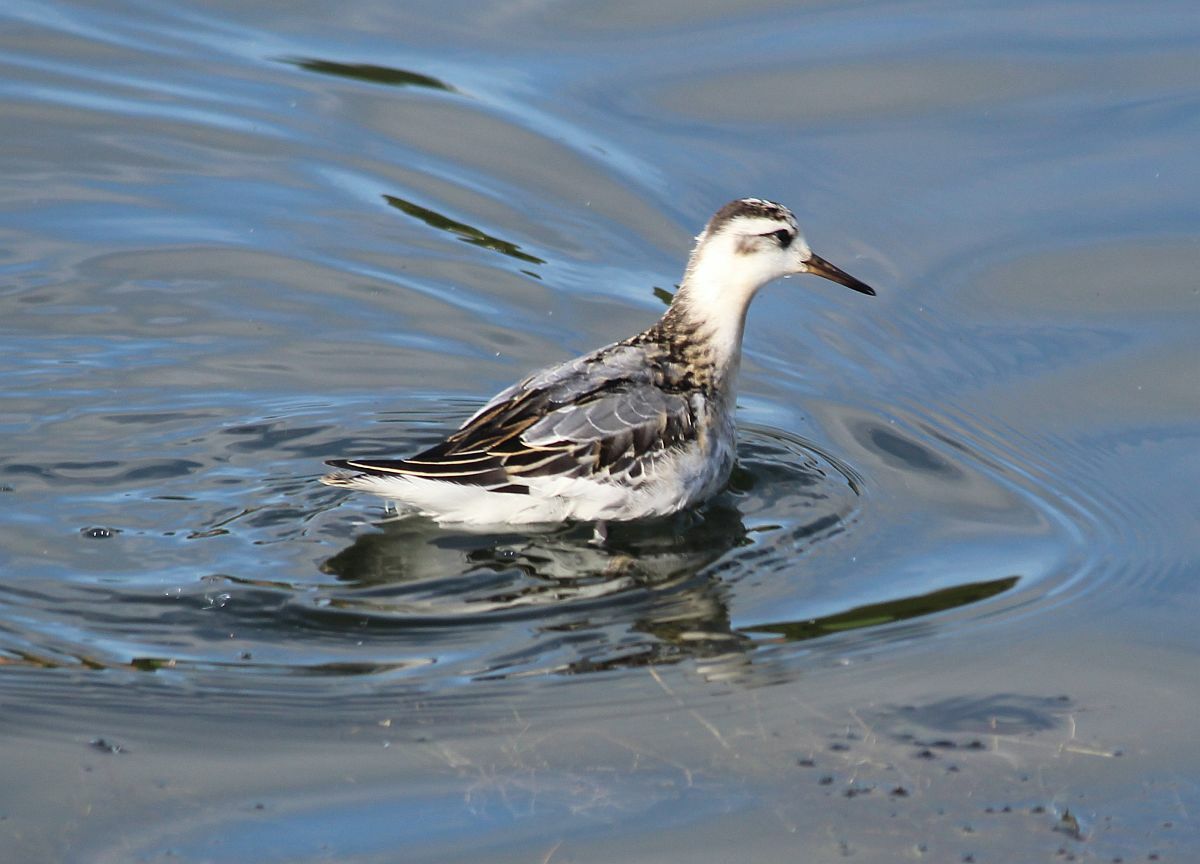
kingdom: Animalia
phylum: Chordata
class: Aves
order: Charadriiformes
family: Scolopacidae
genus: Phalaropus
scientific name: Phalaropus fulicarius
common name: Red phalarope
